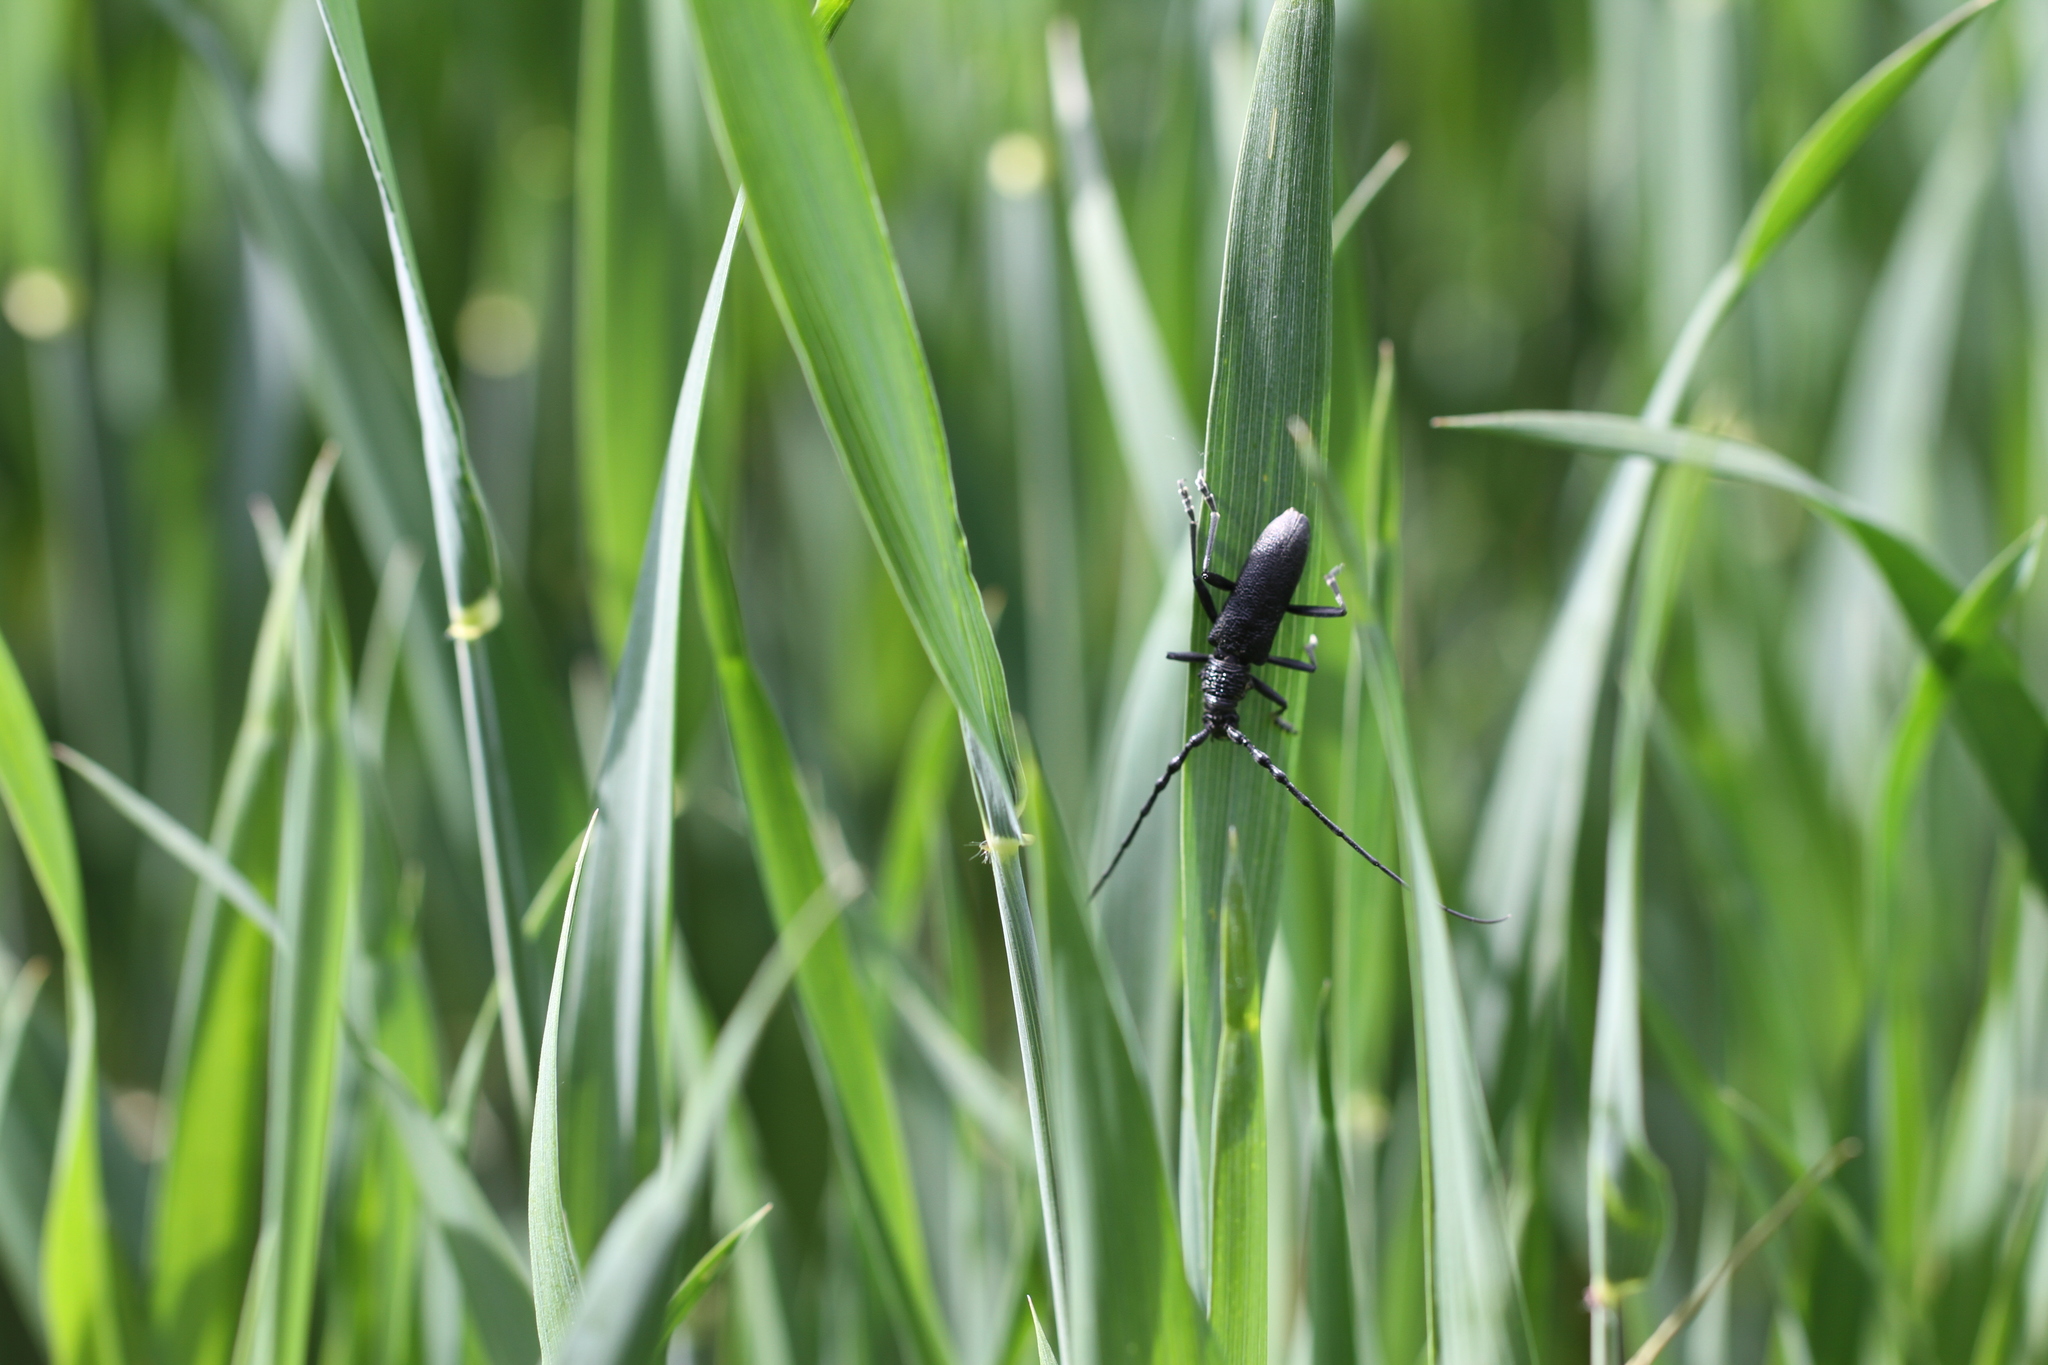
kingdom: Animalia
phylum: Arthropoda
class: Insecta
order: Coleoptera
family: Cerambycidae
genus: Cerambyx
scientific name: Cerambyx scopolii
